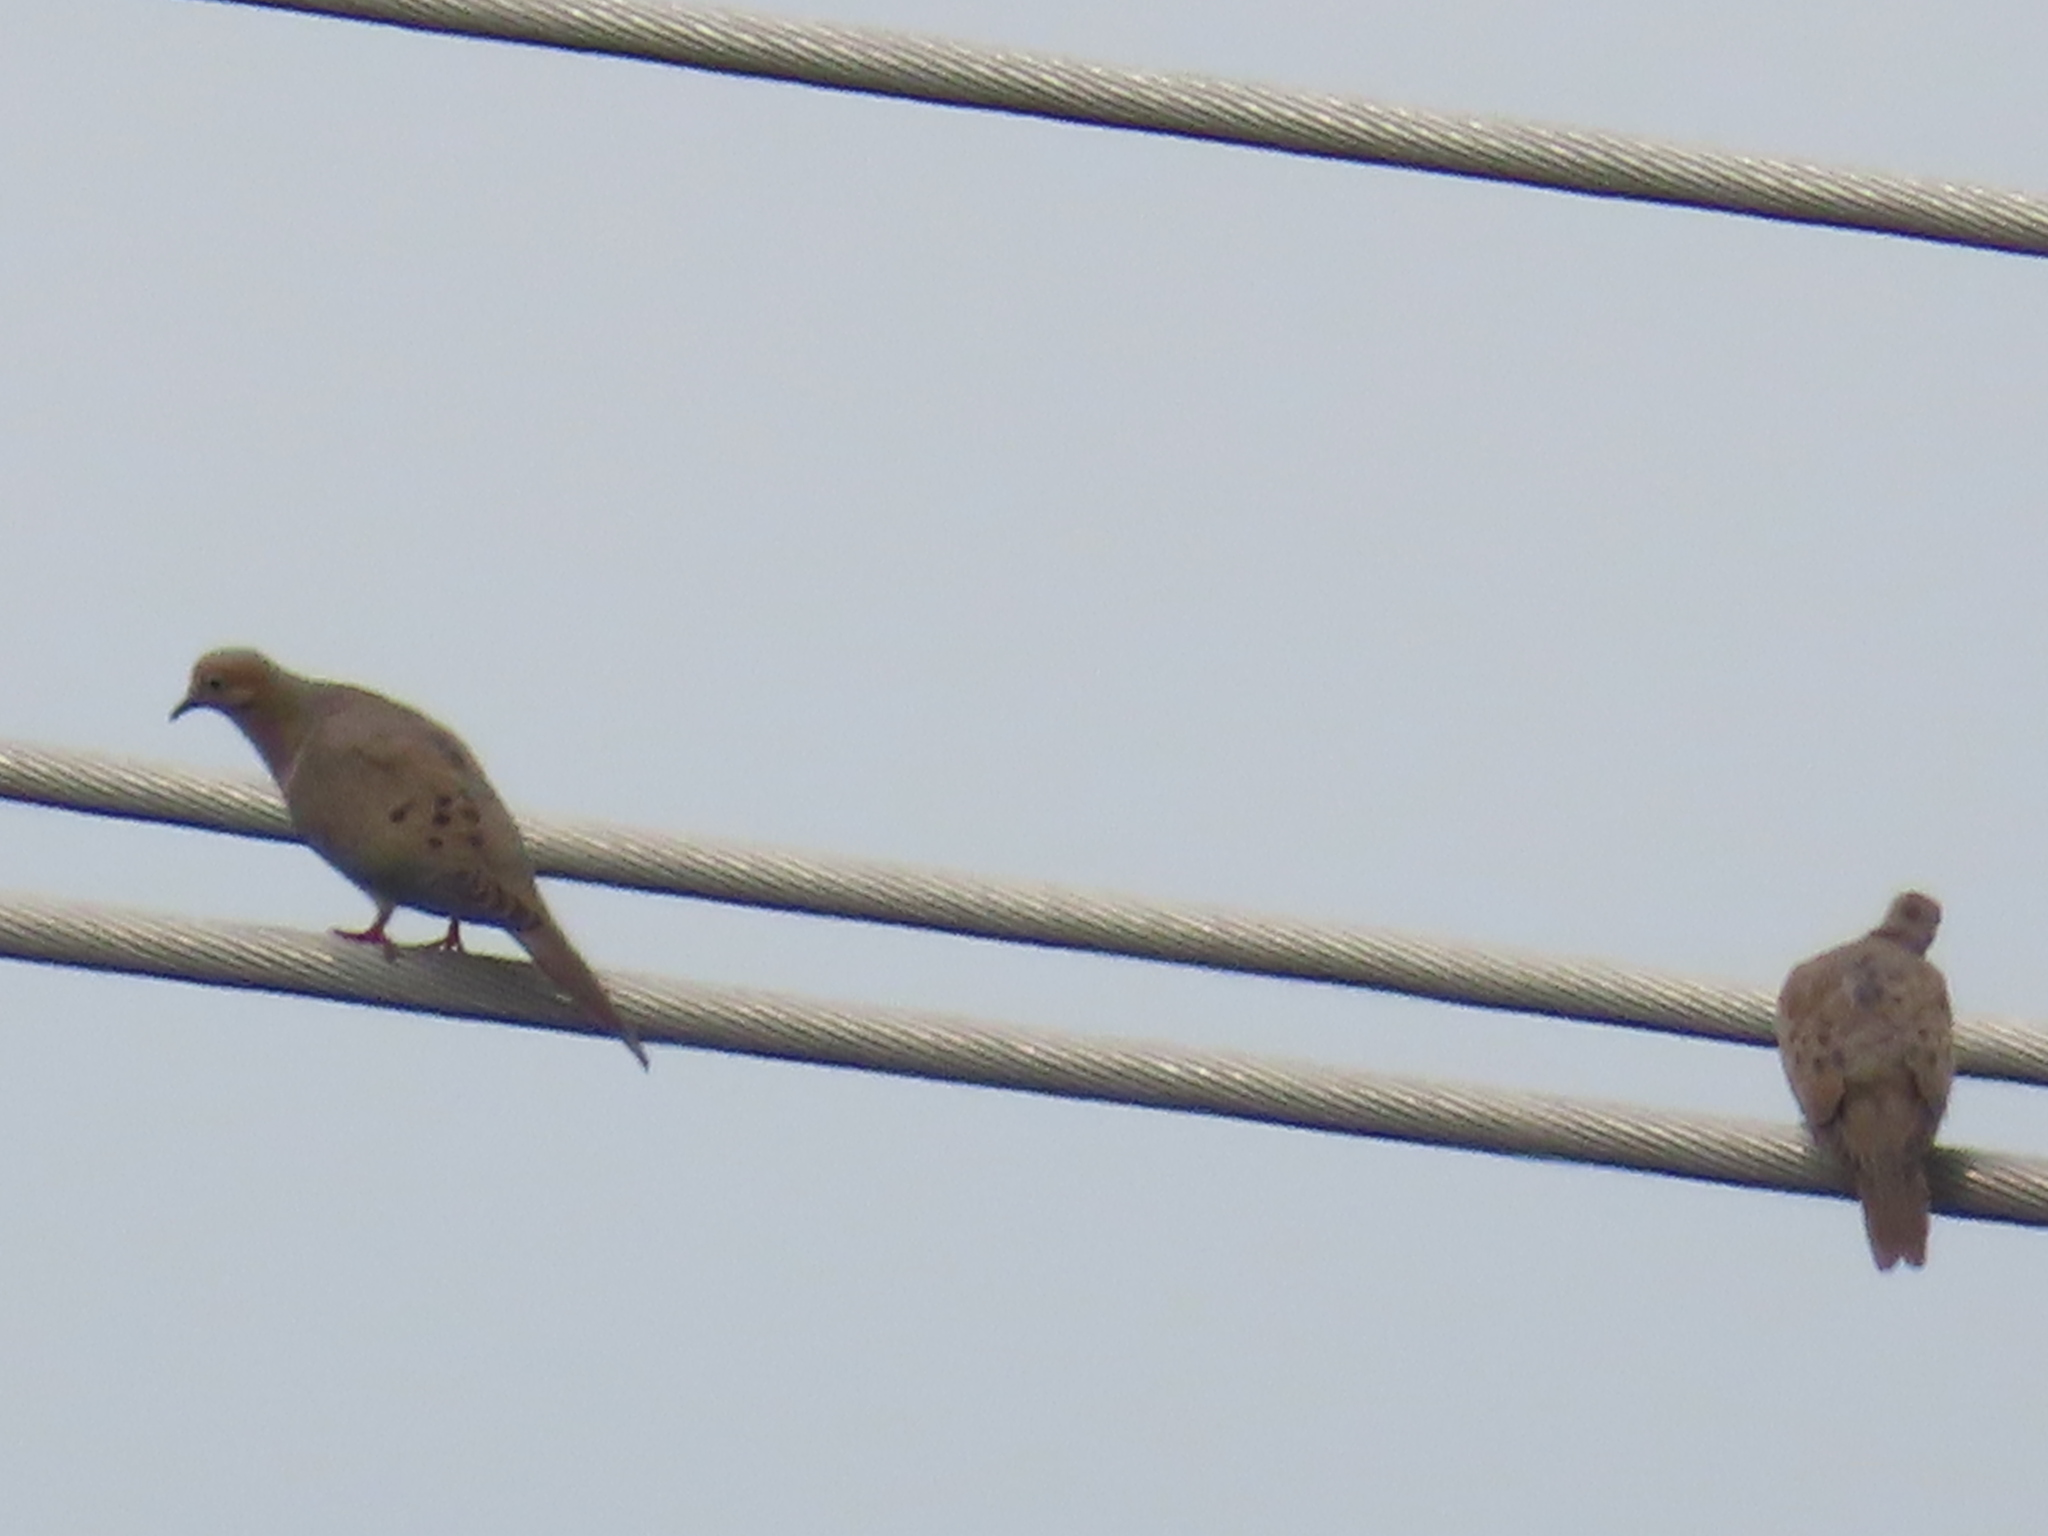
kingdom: Animalia
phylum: Chordata
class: Aves
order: Columbiformes
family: Columbidae
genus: Zenaida
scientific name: Zenaida macroura
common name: Mourning dove
